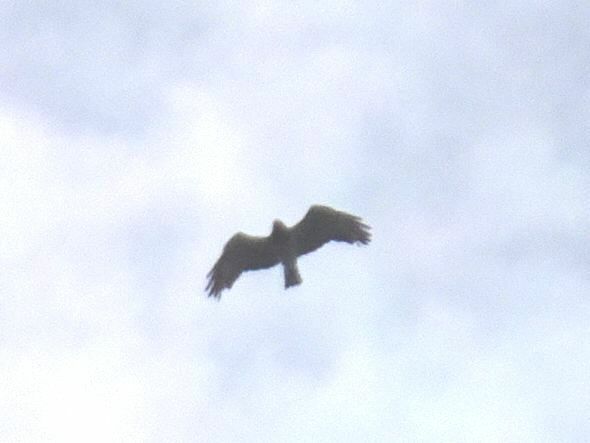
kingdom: Animalia
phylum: Chordata
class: Aves
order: Accipitriformes
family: Accipitridae
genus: Circaetus
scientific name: Circaetus gallicus
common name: Short-toed snake eagle
